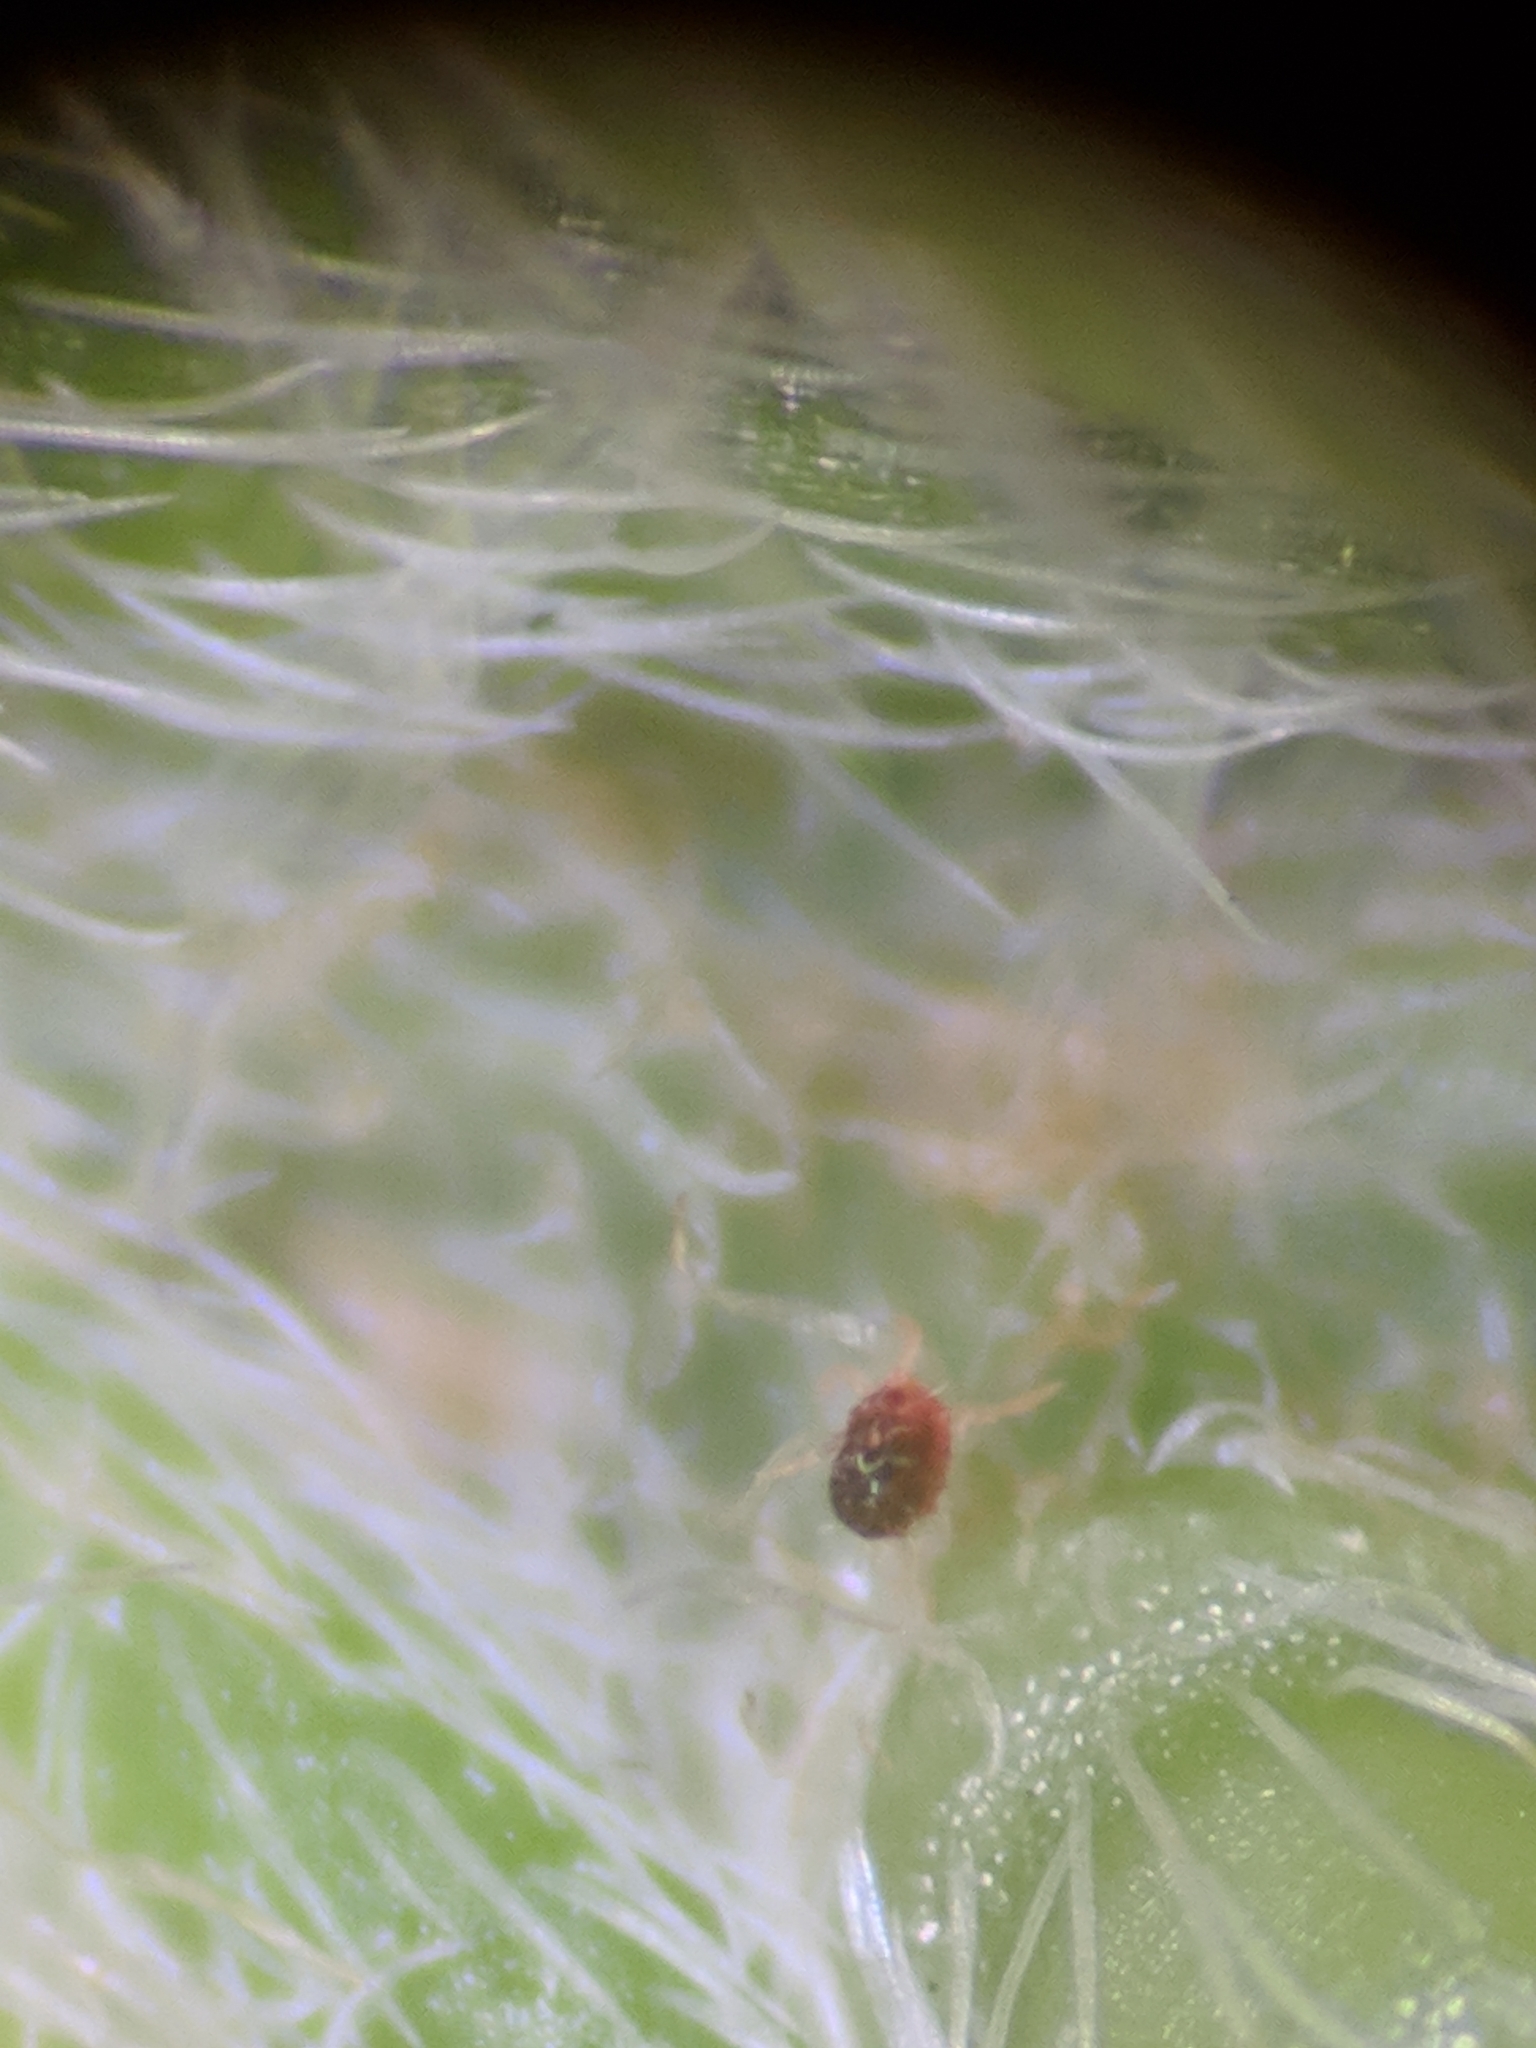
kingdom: Animalia
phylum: Arthropoda
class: Arachnida
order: Trombidiformes
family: Tetranychidae
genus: Petrobia
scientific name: Petrobia harti
